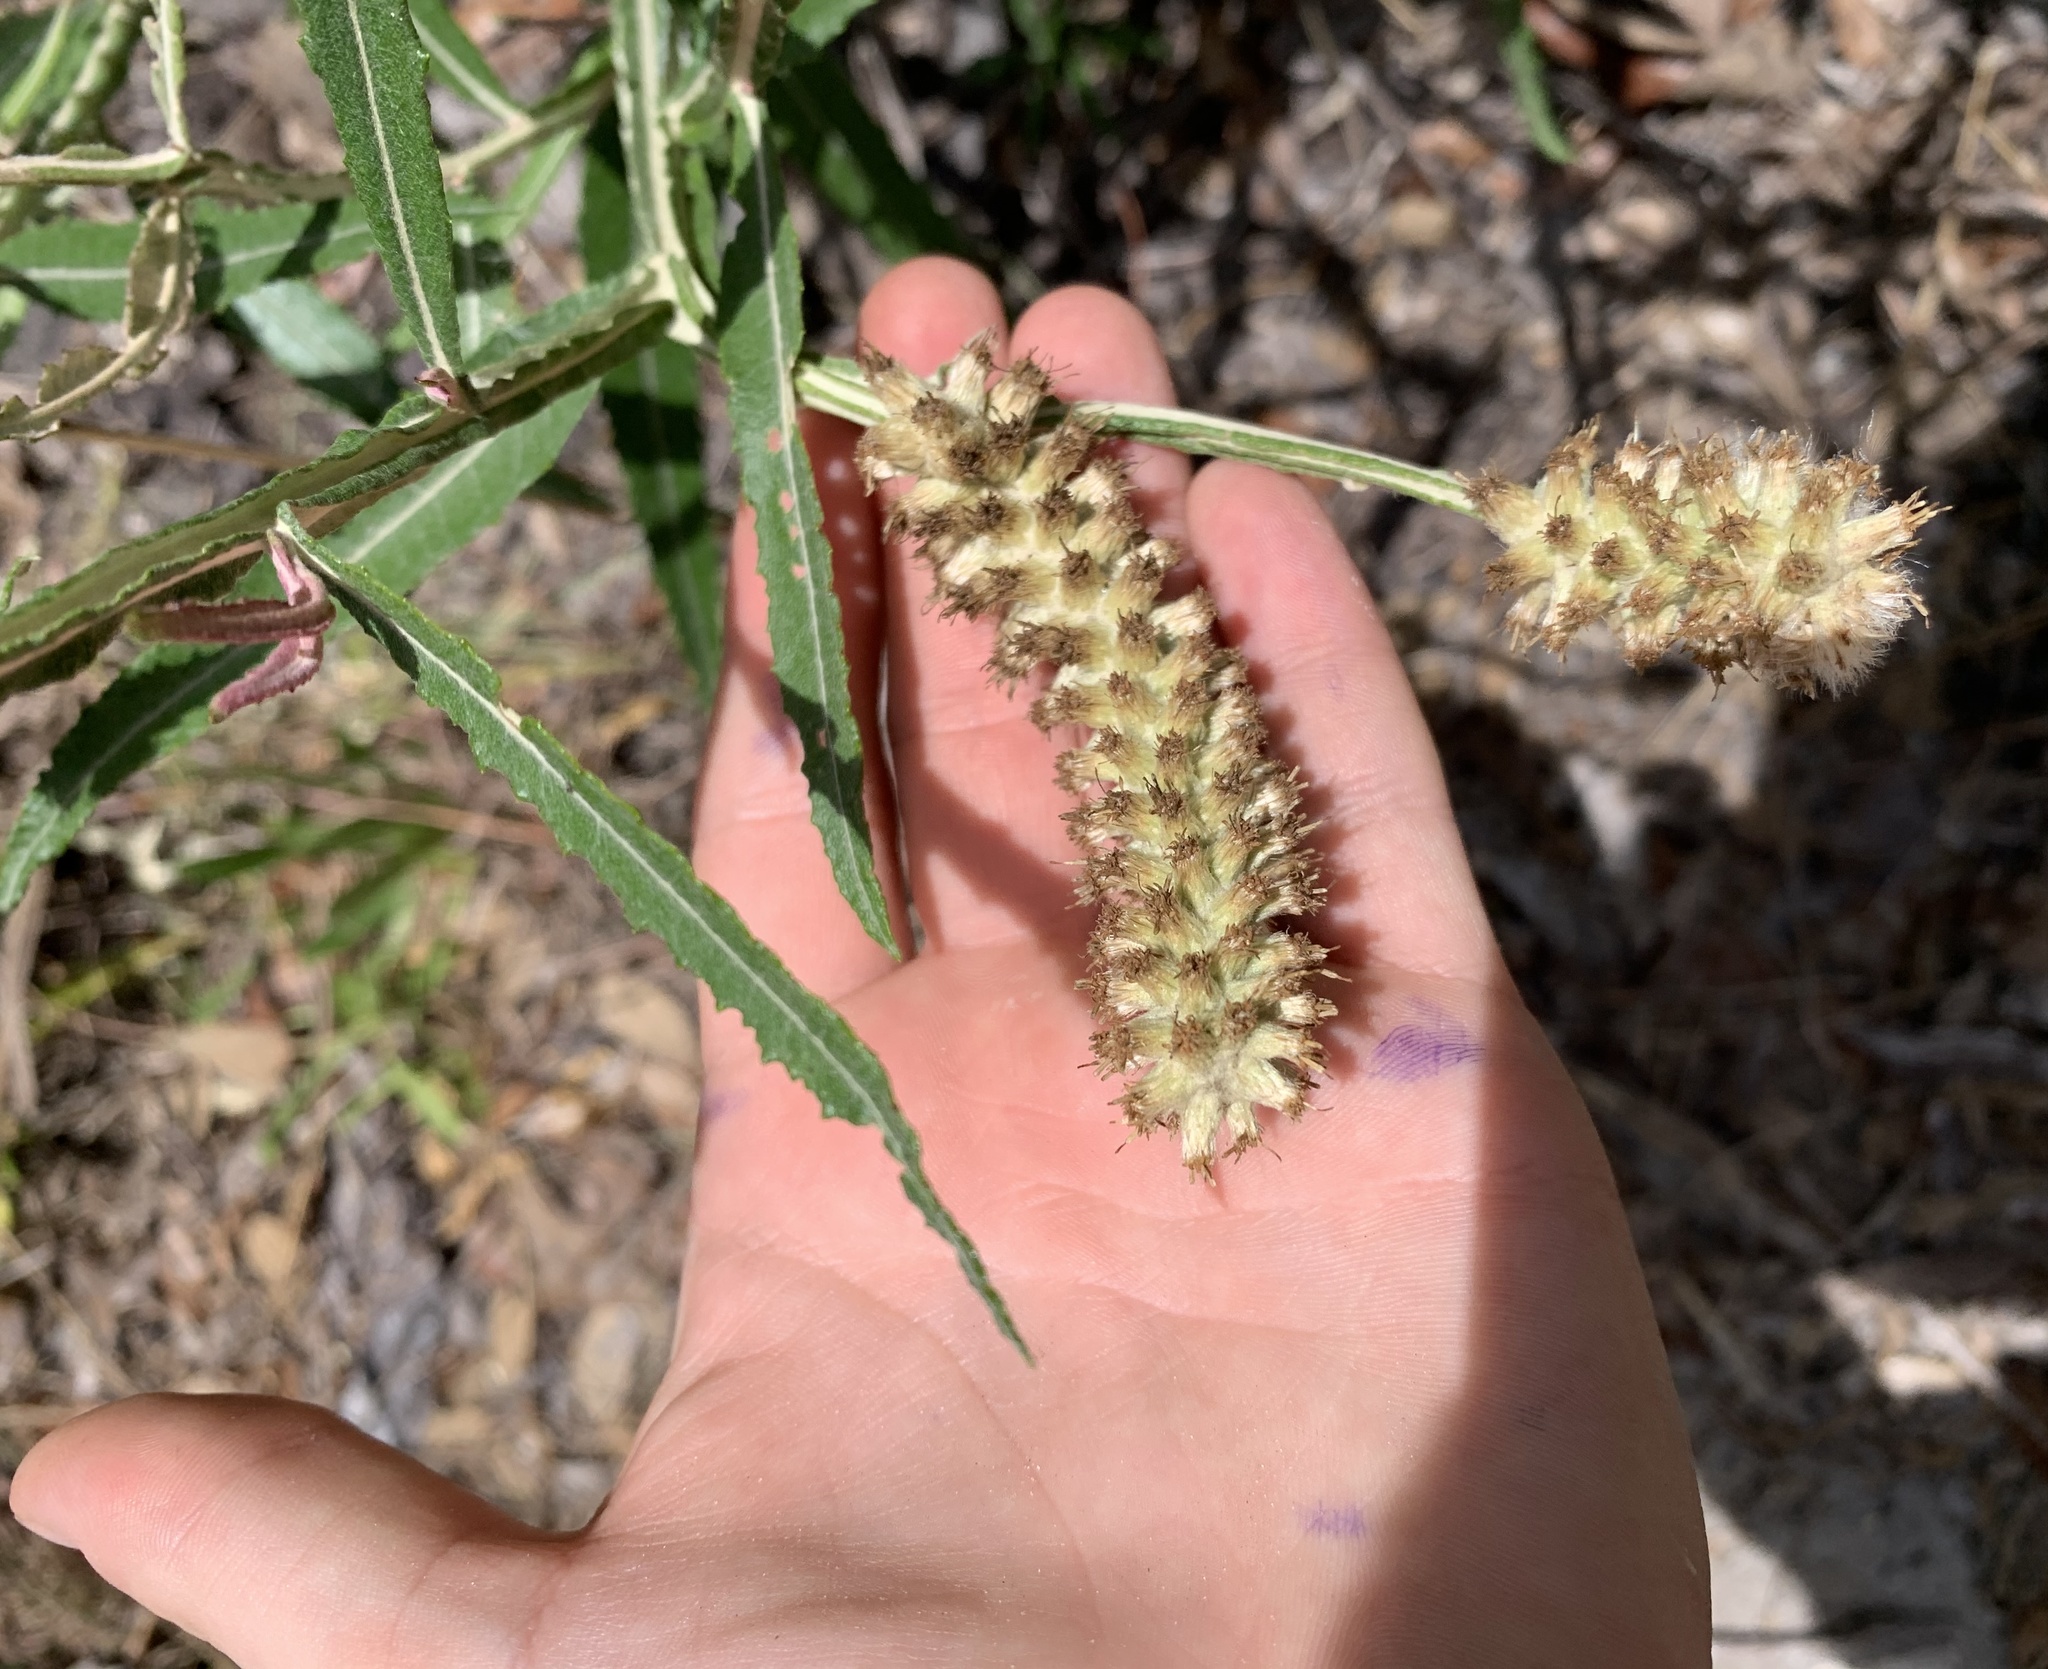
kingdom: Plantae
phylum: Tracheophyta
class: Magnoliopsida
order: Asterales
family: Asteraceae
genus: Pterocaulon
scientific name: Pterocaulon pycnostachyum
